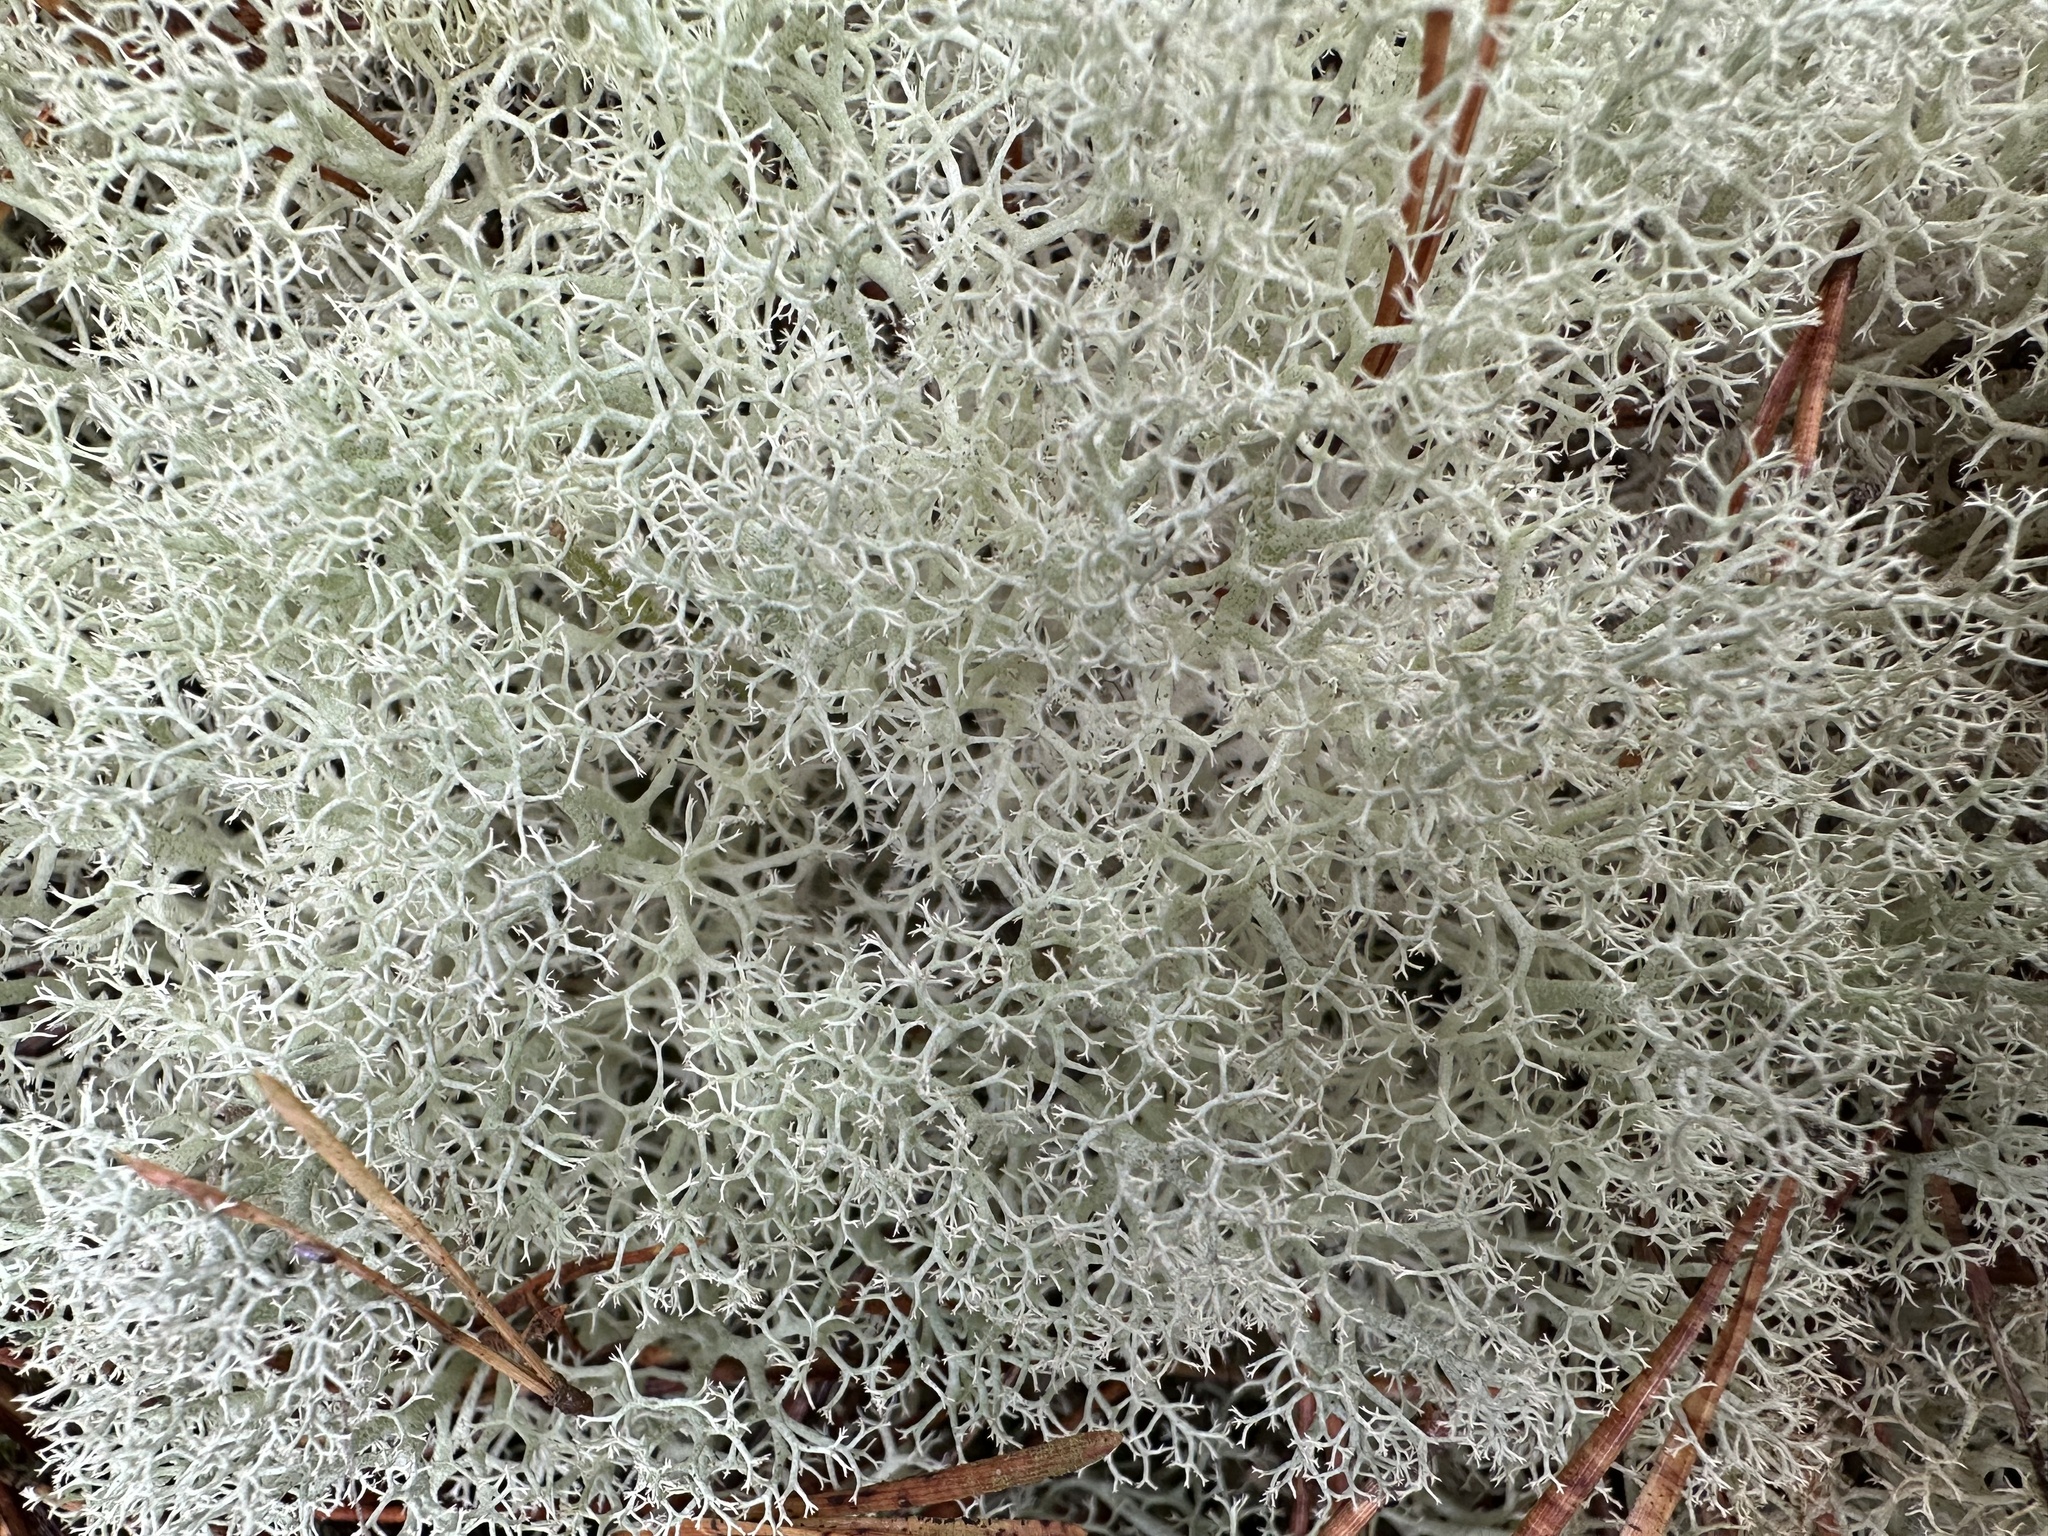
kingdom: Fungi
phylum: Ascomycota
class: Lecanoromycetes
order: Lecanorales
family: Cladoniaceae
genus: Cladonia
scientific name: Cladonia portentosa
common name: Reindeer lichen
